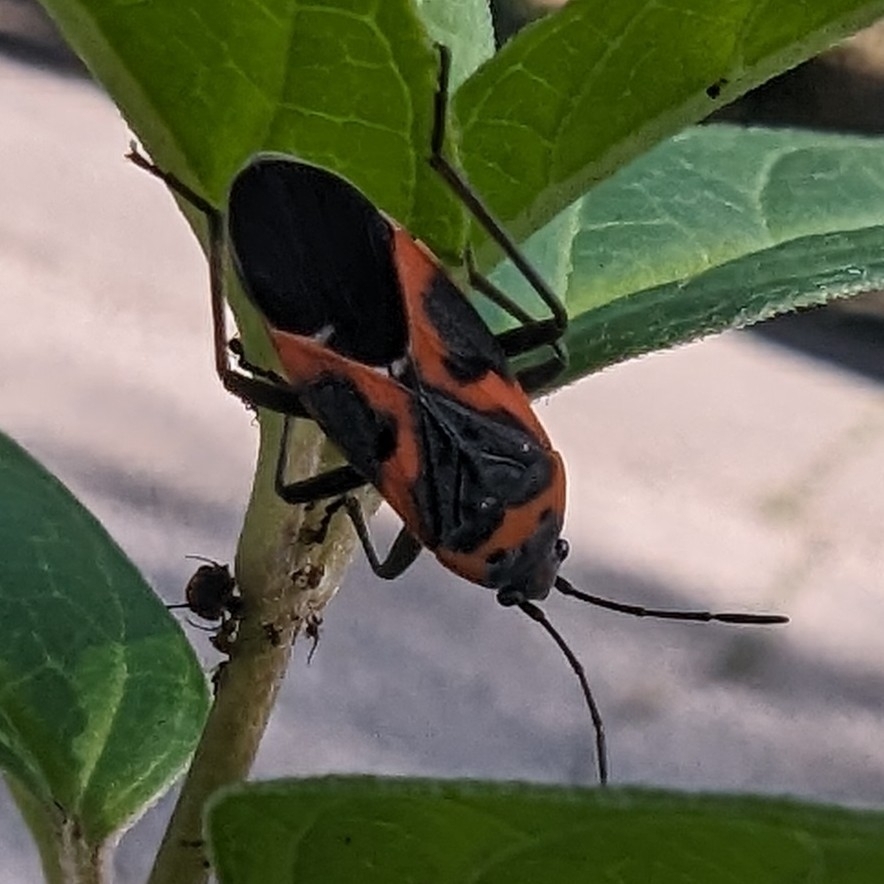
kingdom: Animalia
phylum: Arthropoda
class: Insecta
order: Hemiptera
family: Lygaeidae
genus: Lygaeus
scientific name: Lygaeus kalmii
